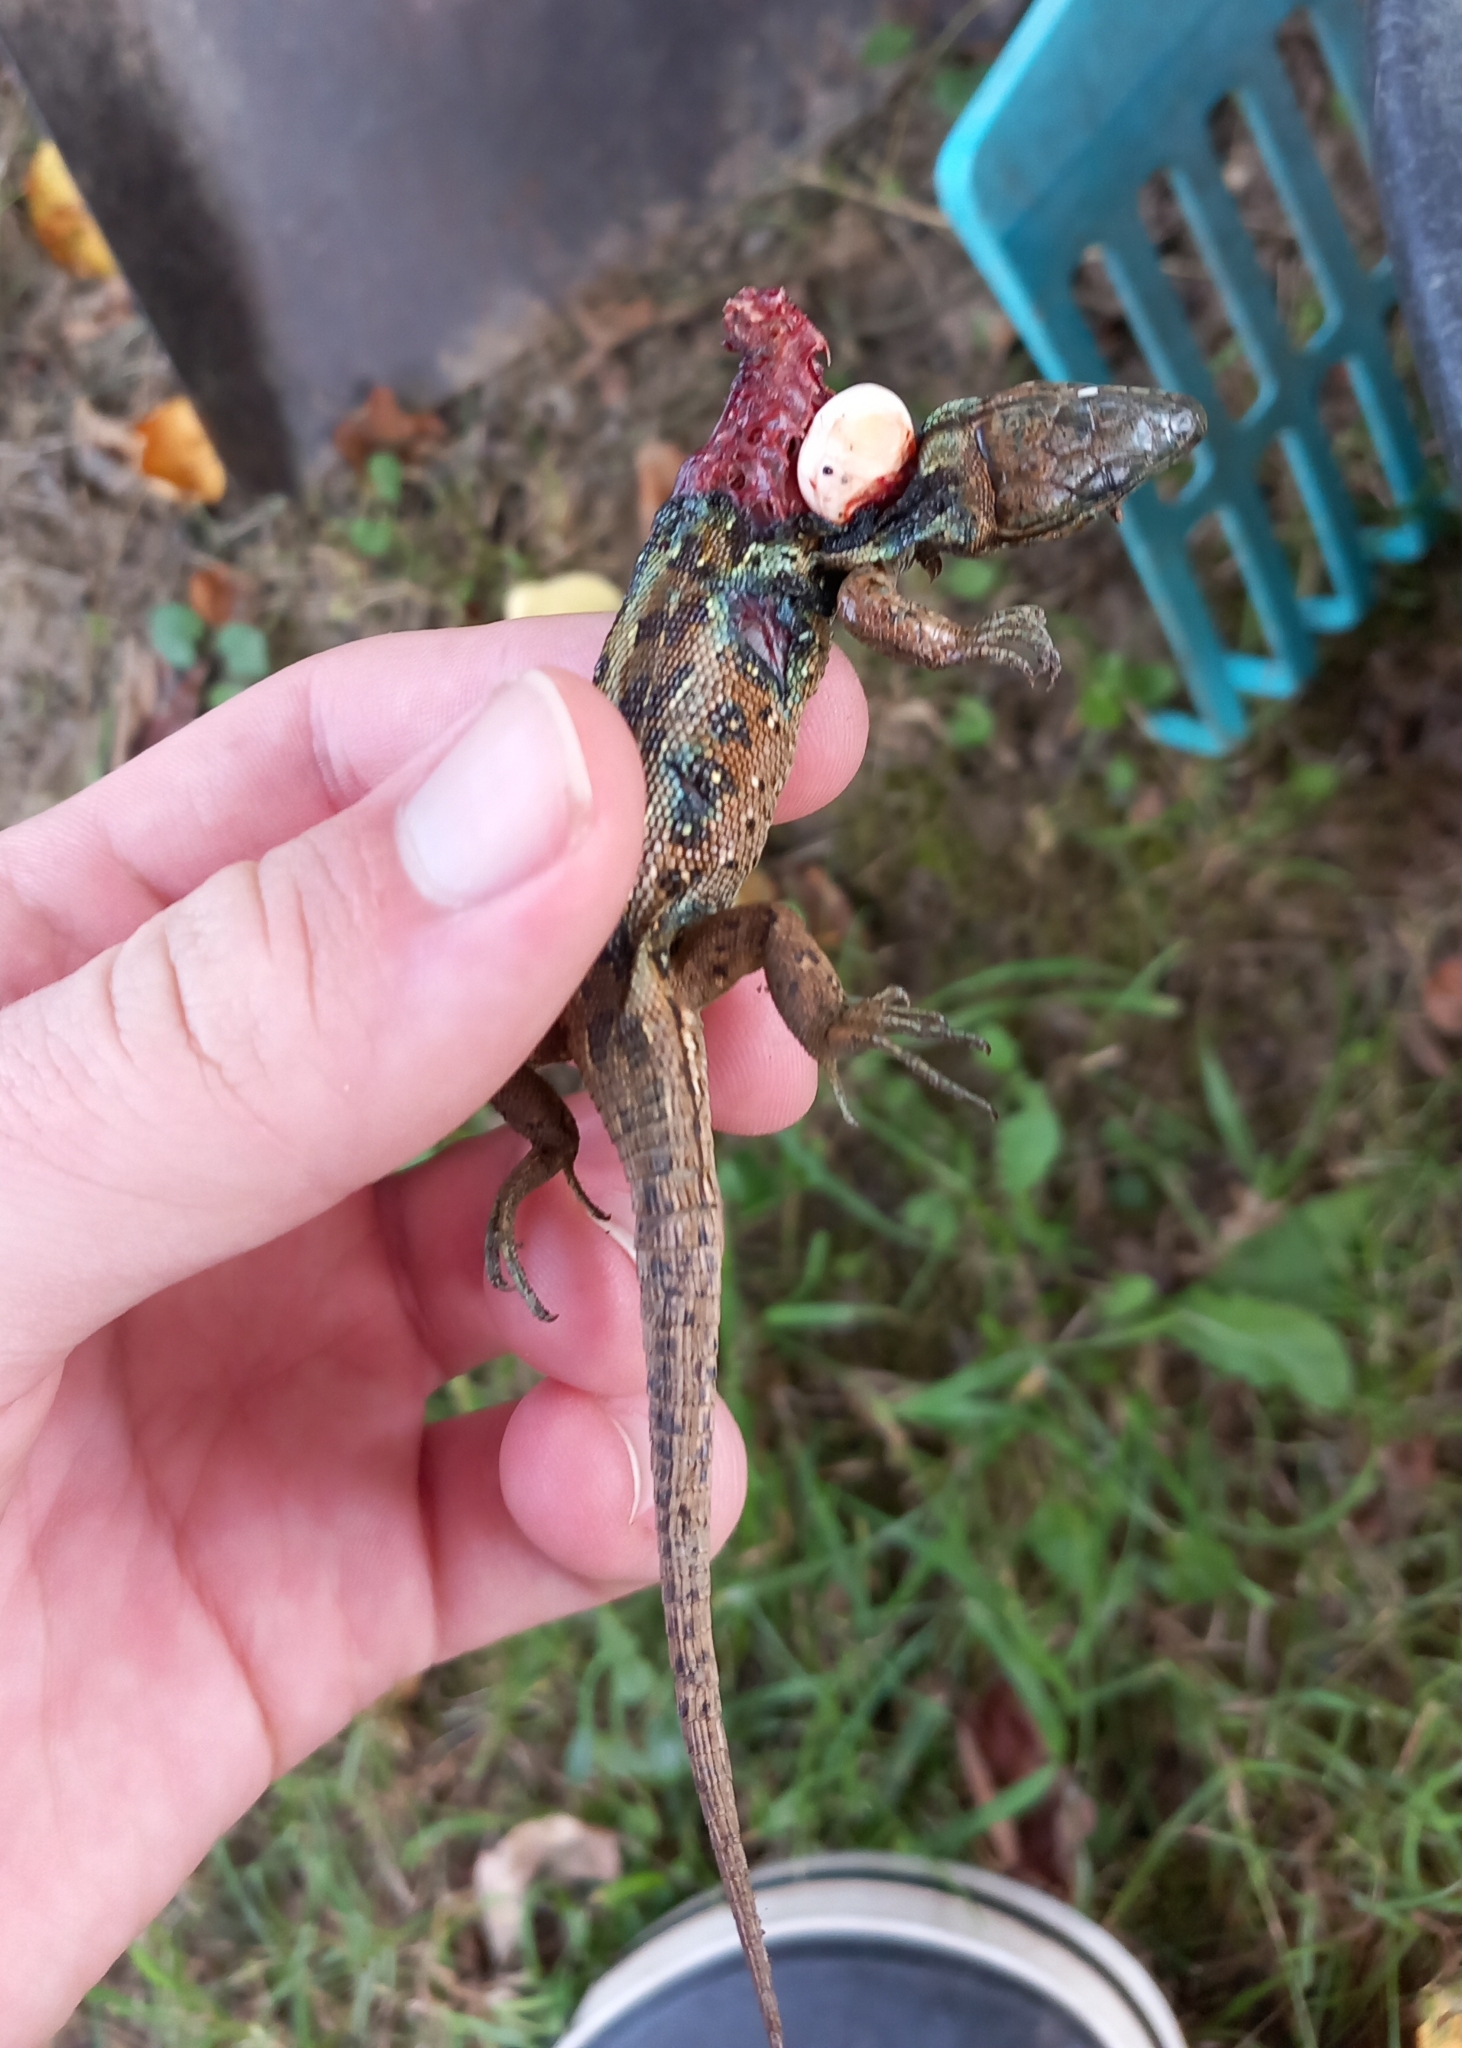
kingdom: Animalia
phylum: Chordata
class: Squamata
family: Lacertidae
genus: Lacerta
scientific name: Lacerta agilis
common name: Sand lizard
